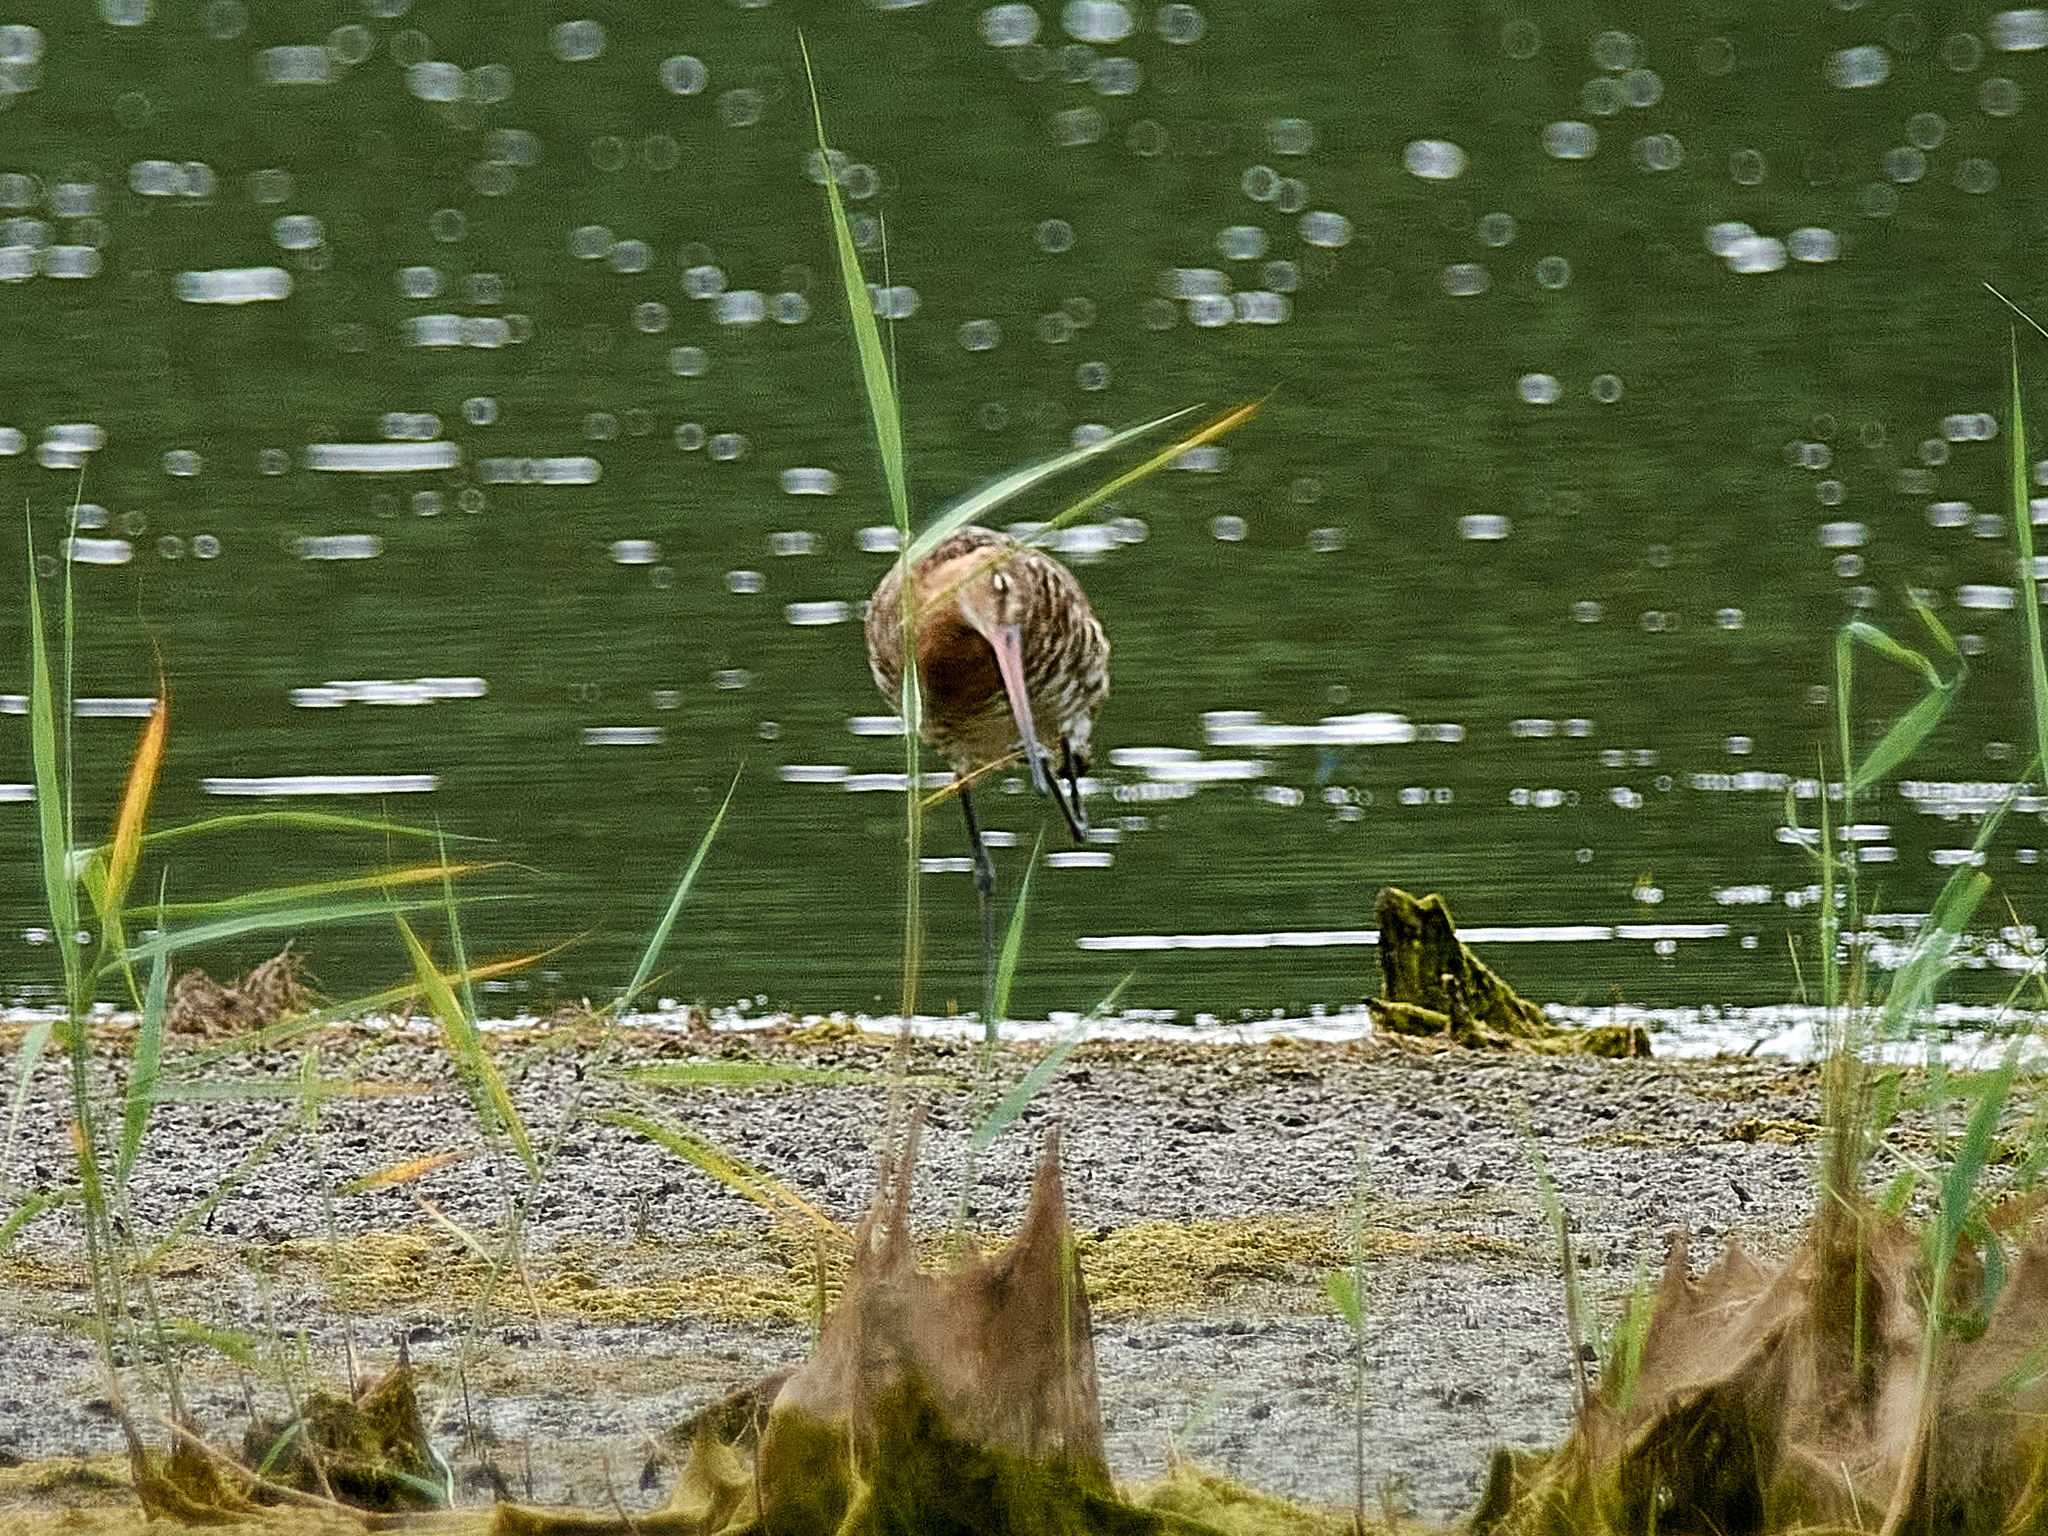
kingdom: Animalia
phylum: Chordata
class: Aves
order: Charadriiformes
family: Scolopacidae
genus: Limosa
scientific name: Limosa limosa
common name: Black-tailed godwit
